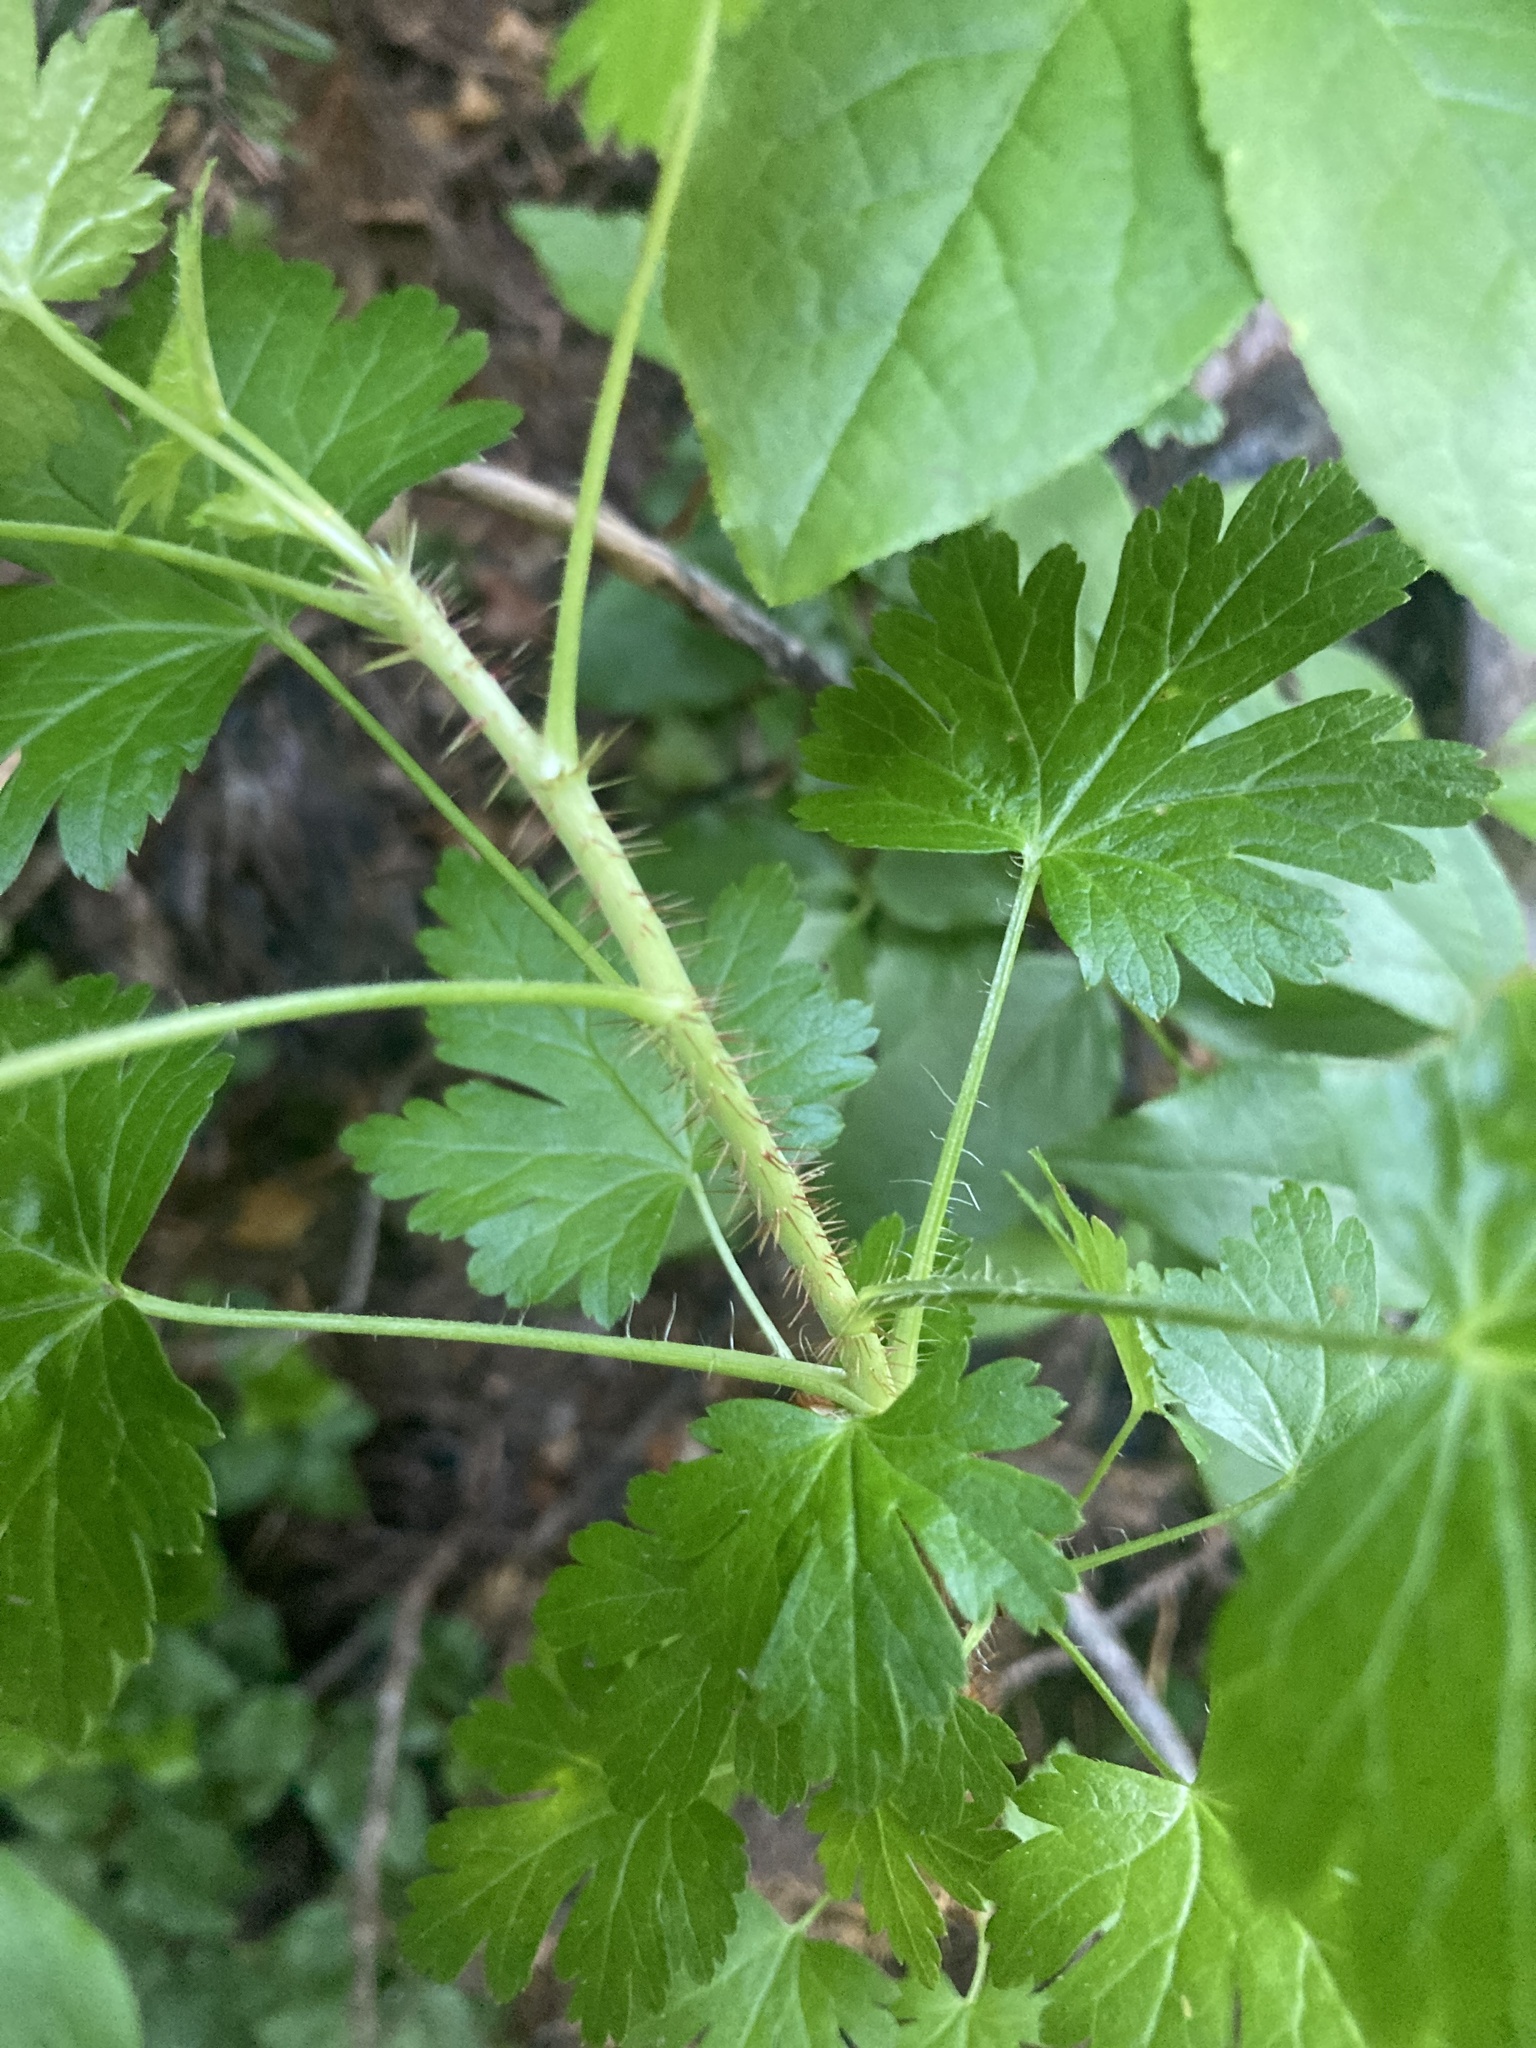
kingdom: Plantae
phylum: Tracheophyta
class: Magnoliopsida
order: Saxifragales
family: Grossulariaceae
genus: Ribes
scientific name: Ribes lacustre
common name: Black gooseberry
